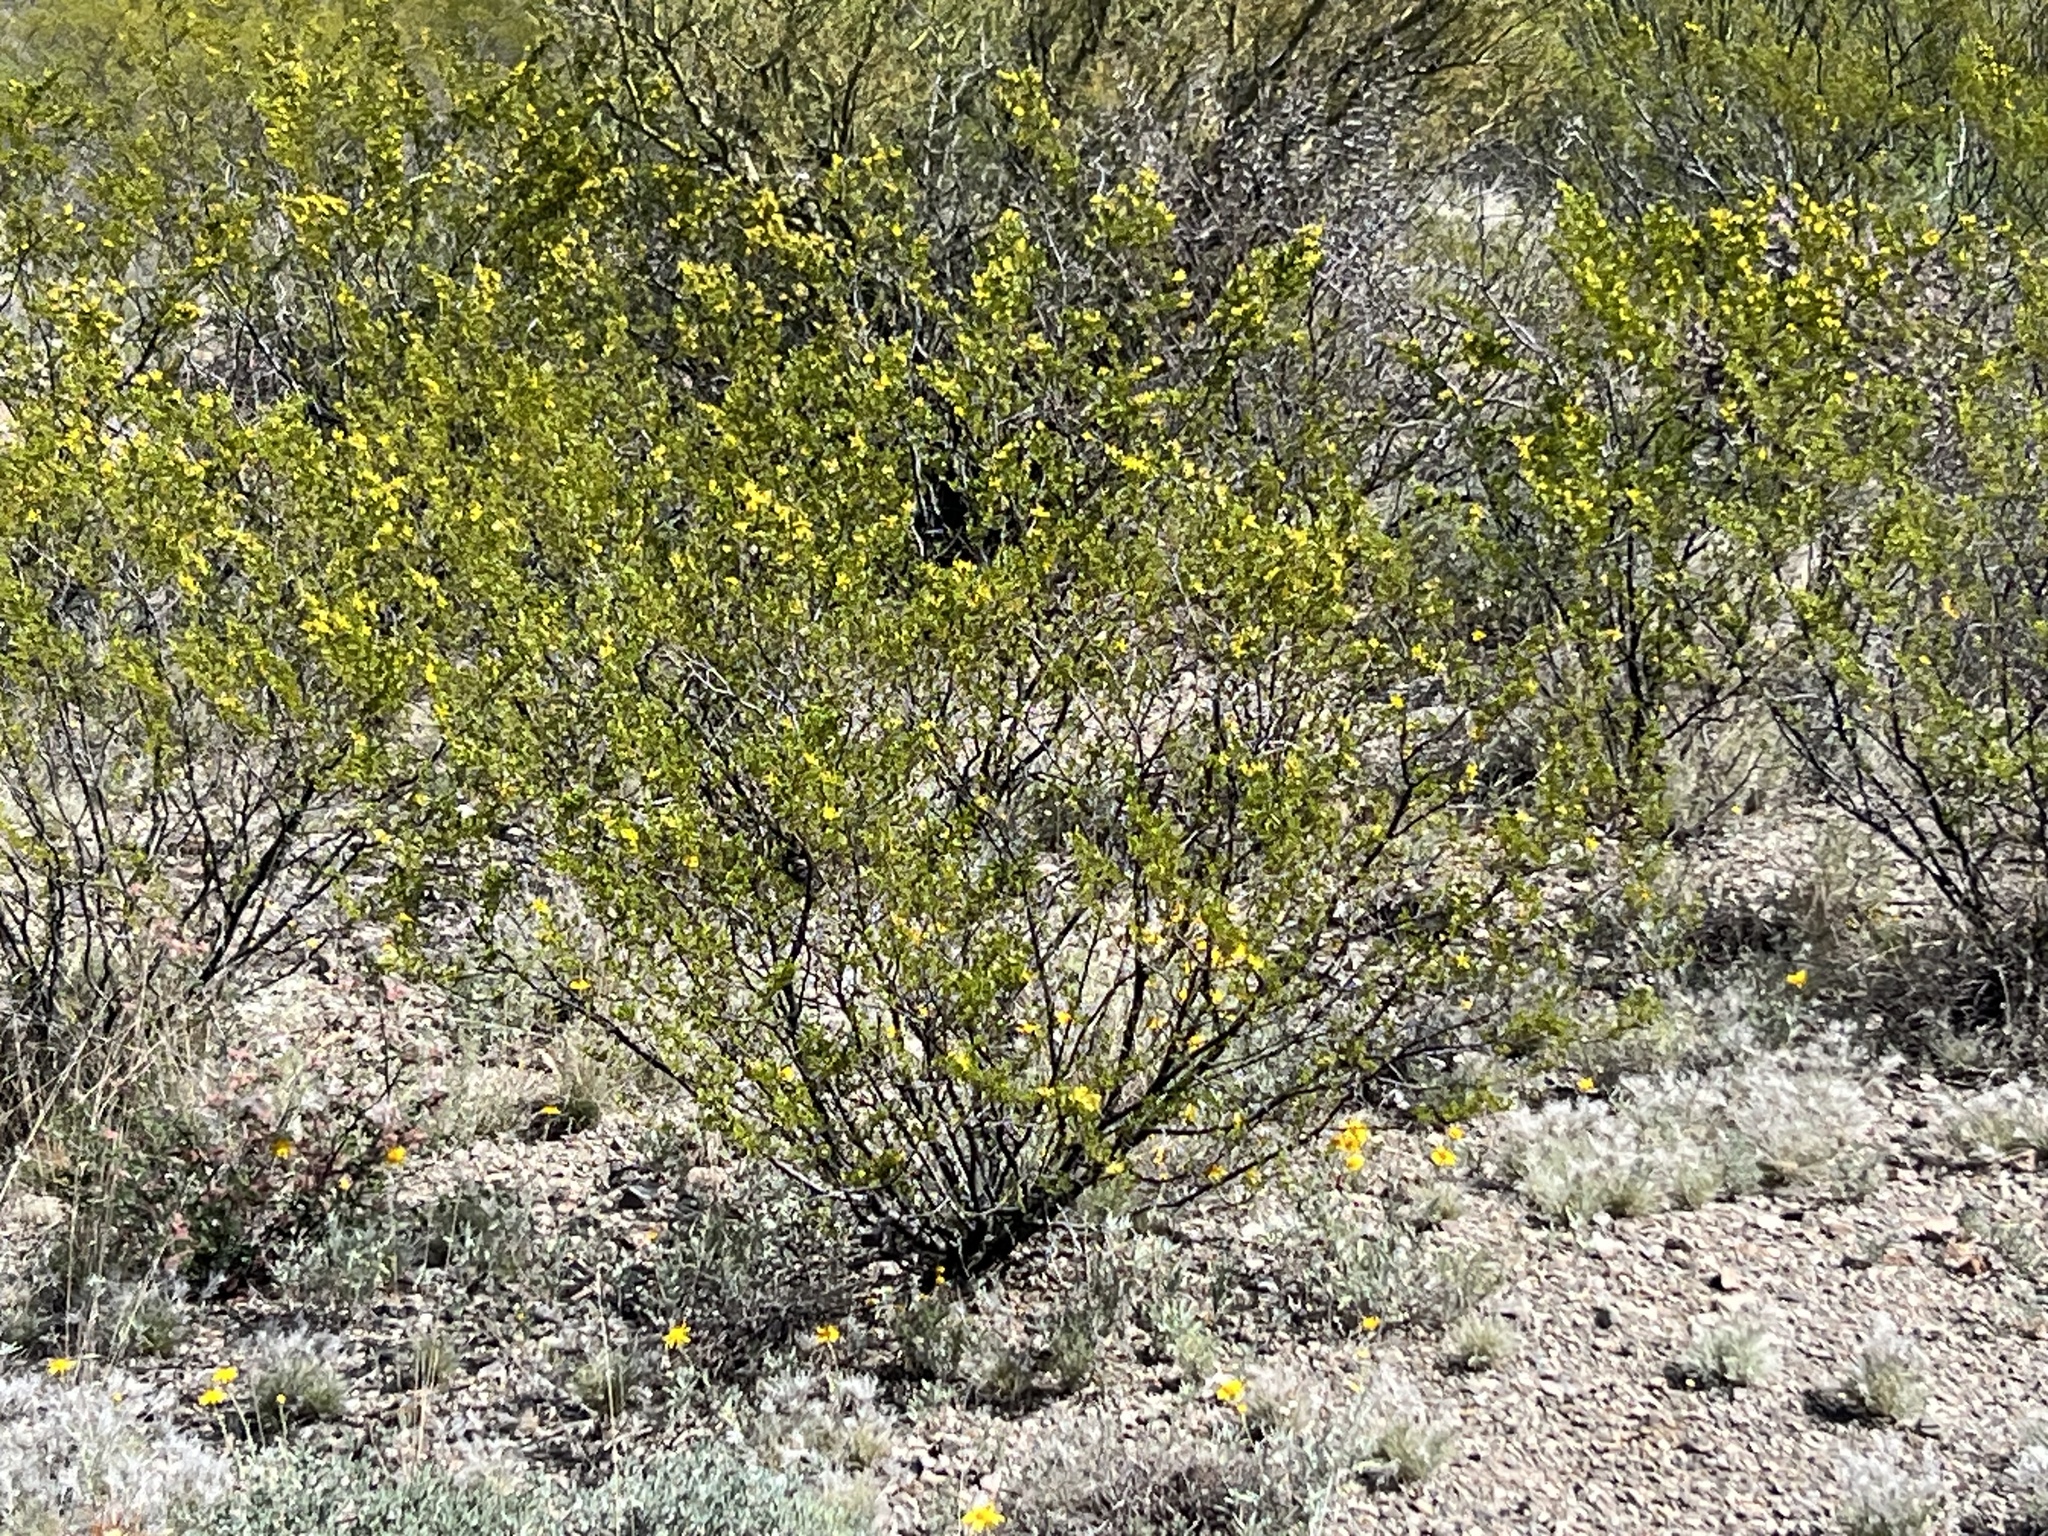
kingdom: Plantae
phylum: Tracheophyta
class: Magnoliopsida
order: Zygophyllales
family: Zygophyllaceae
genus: Larrea
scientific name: Larrea tridentata
